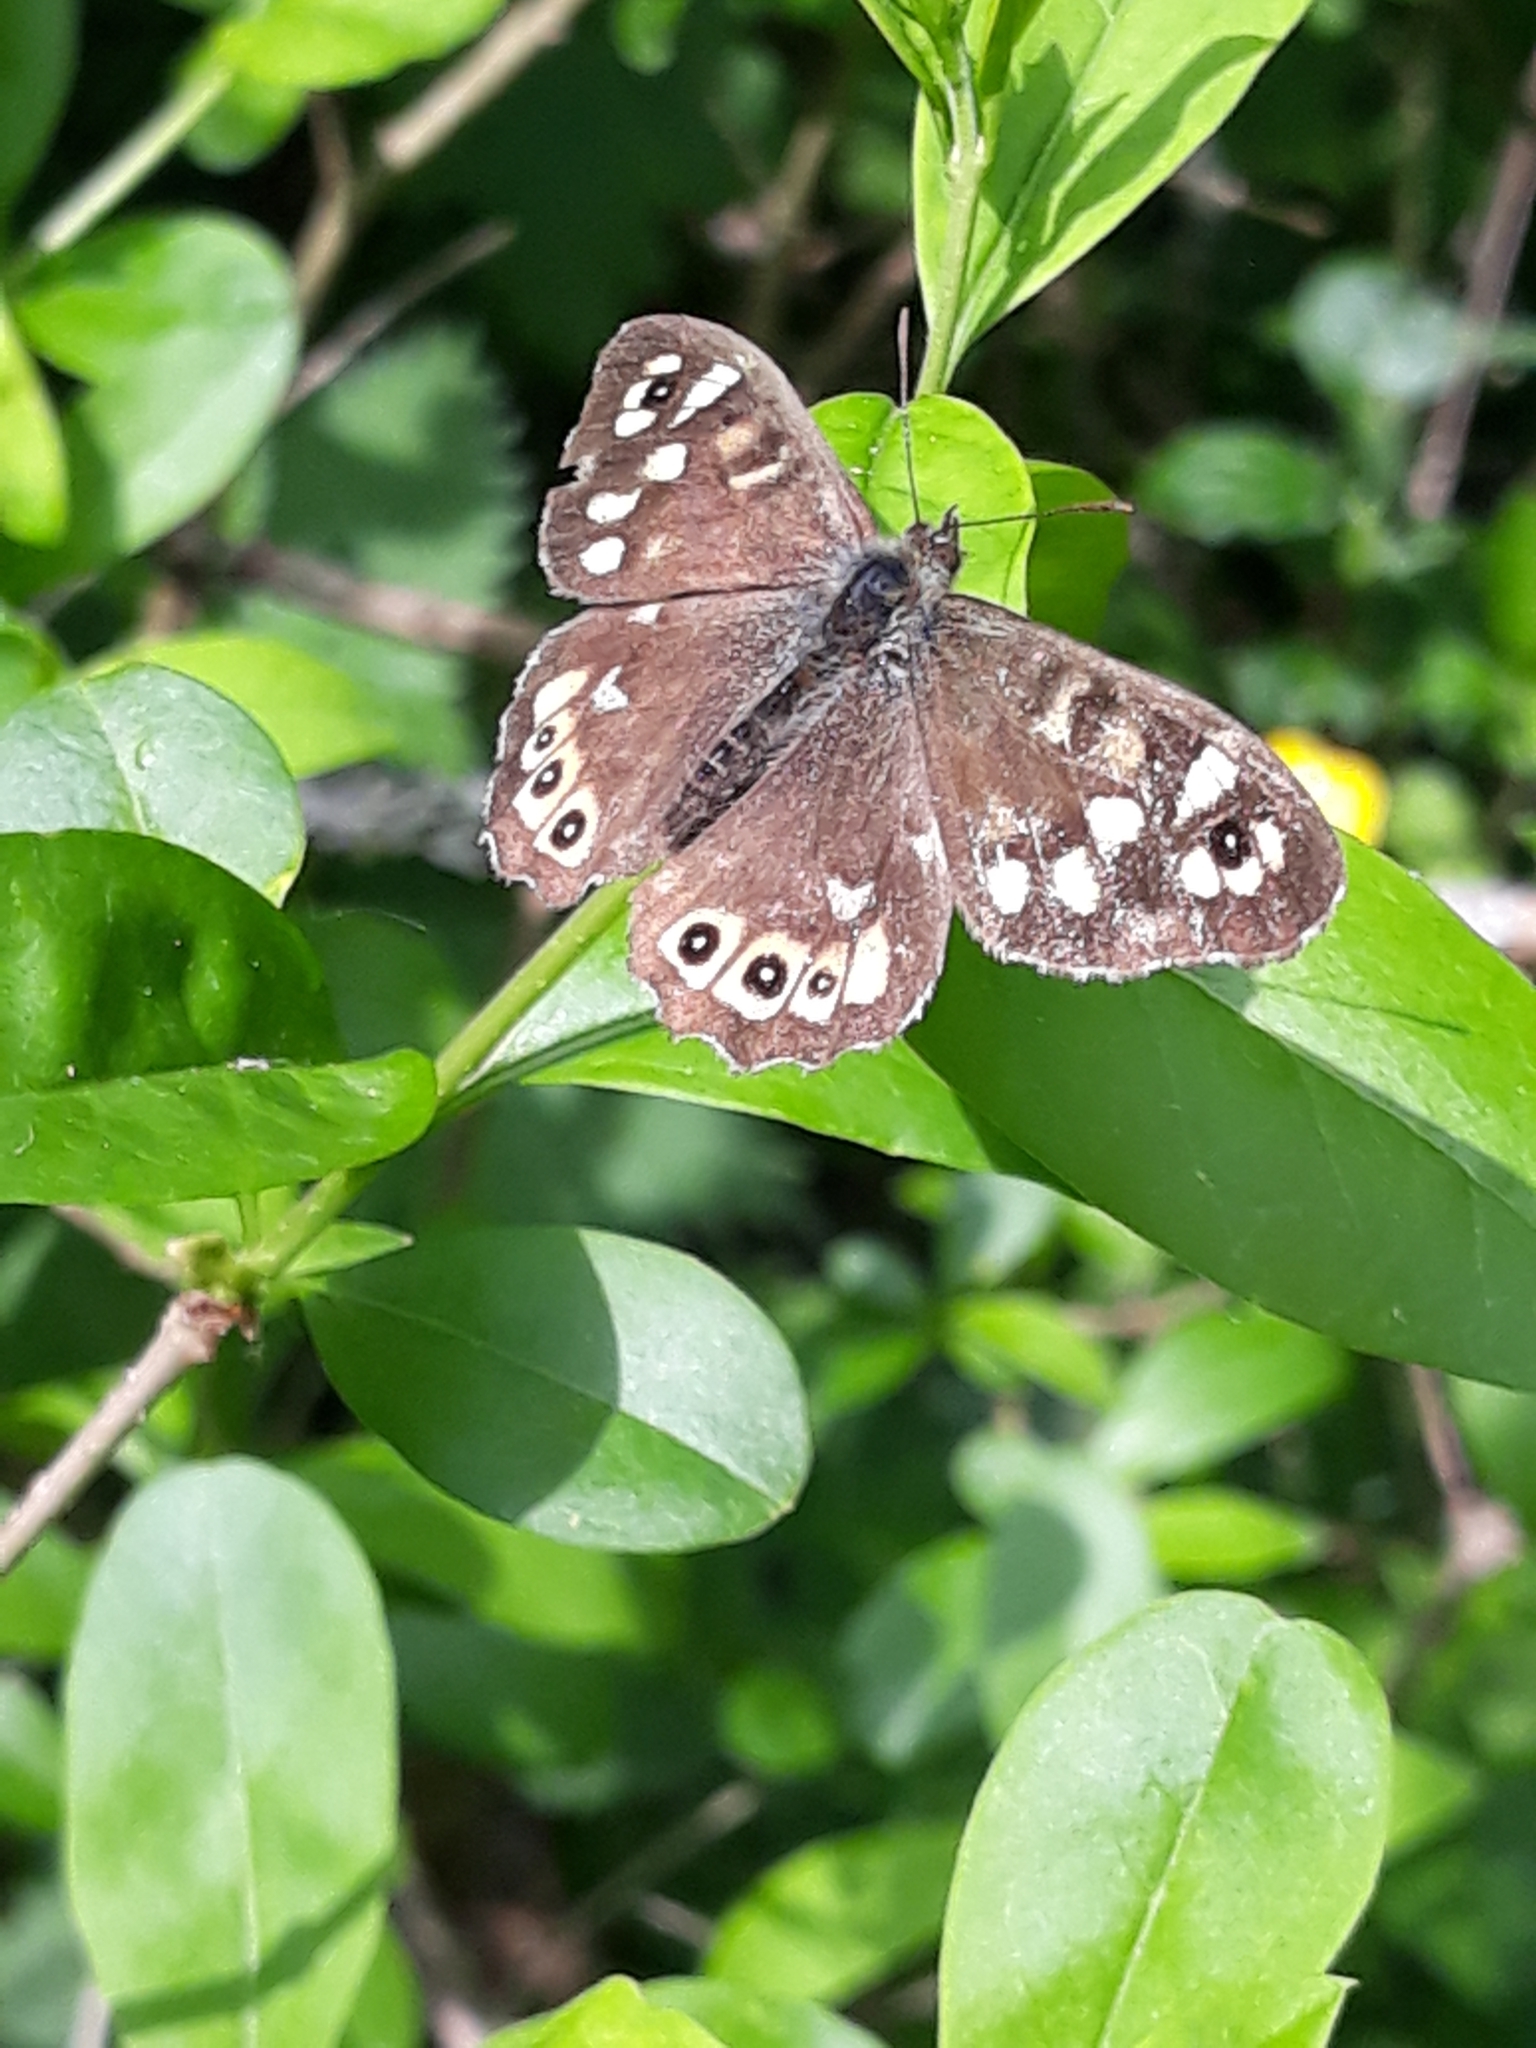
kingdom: Animalia
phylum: Arthropoda
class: Insecta
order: Lepidoptera
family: Nymphalidae
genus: Pararge
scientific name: Pararge aegeria
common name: Speckled wood
